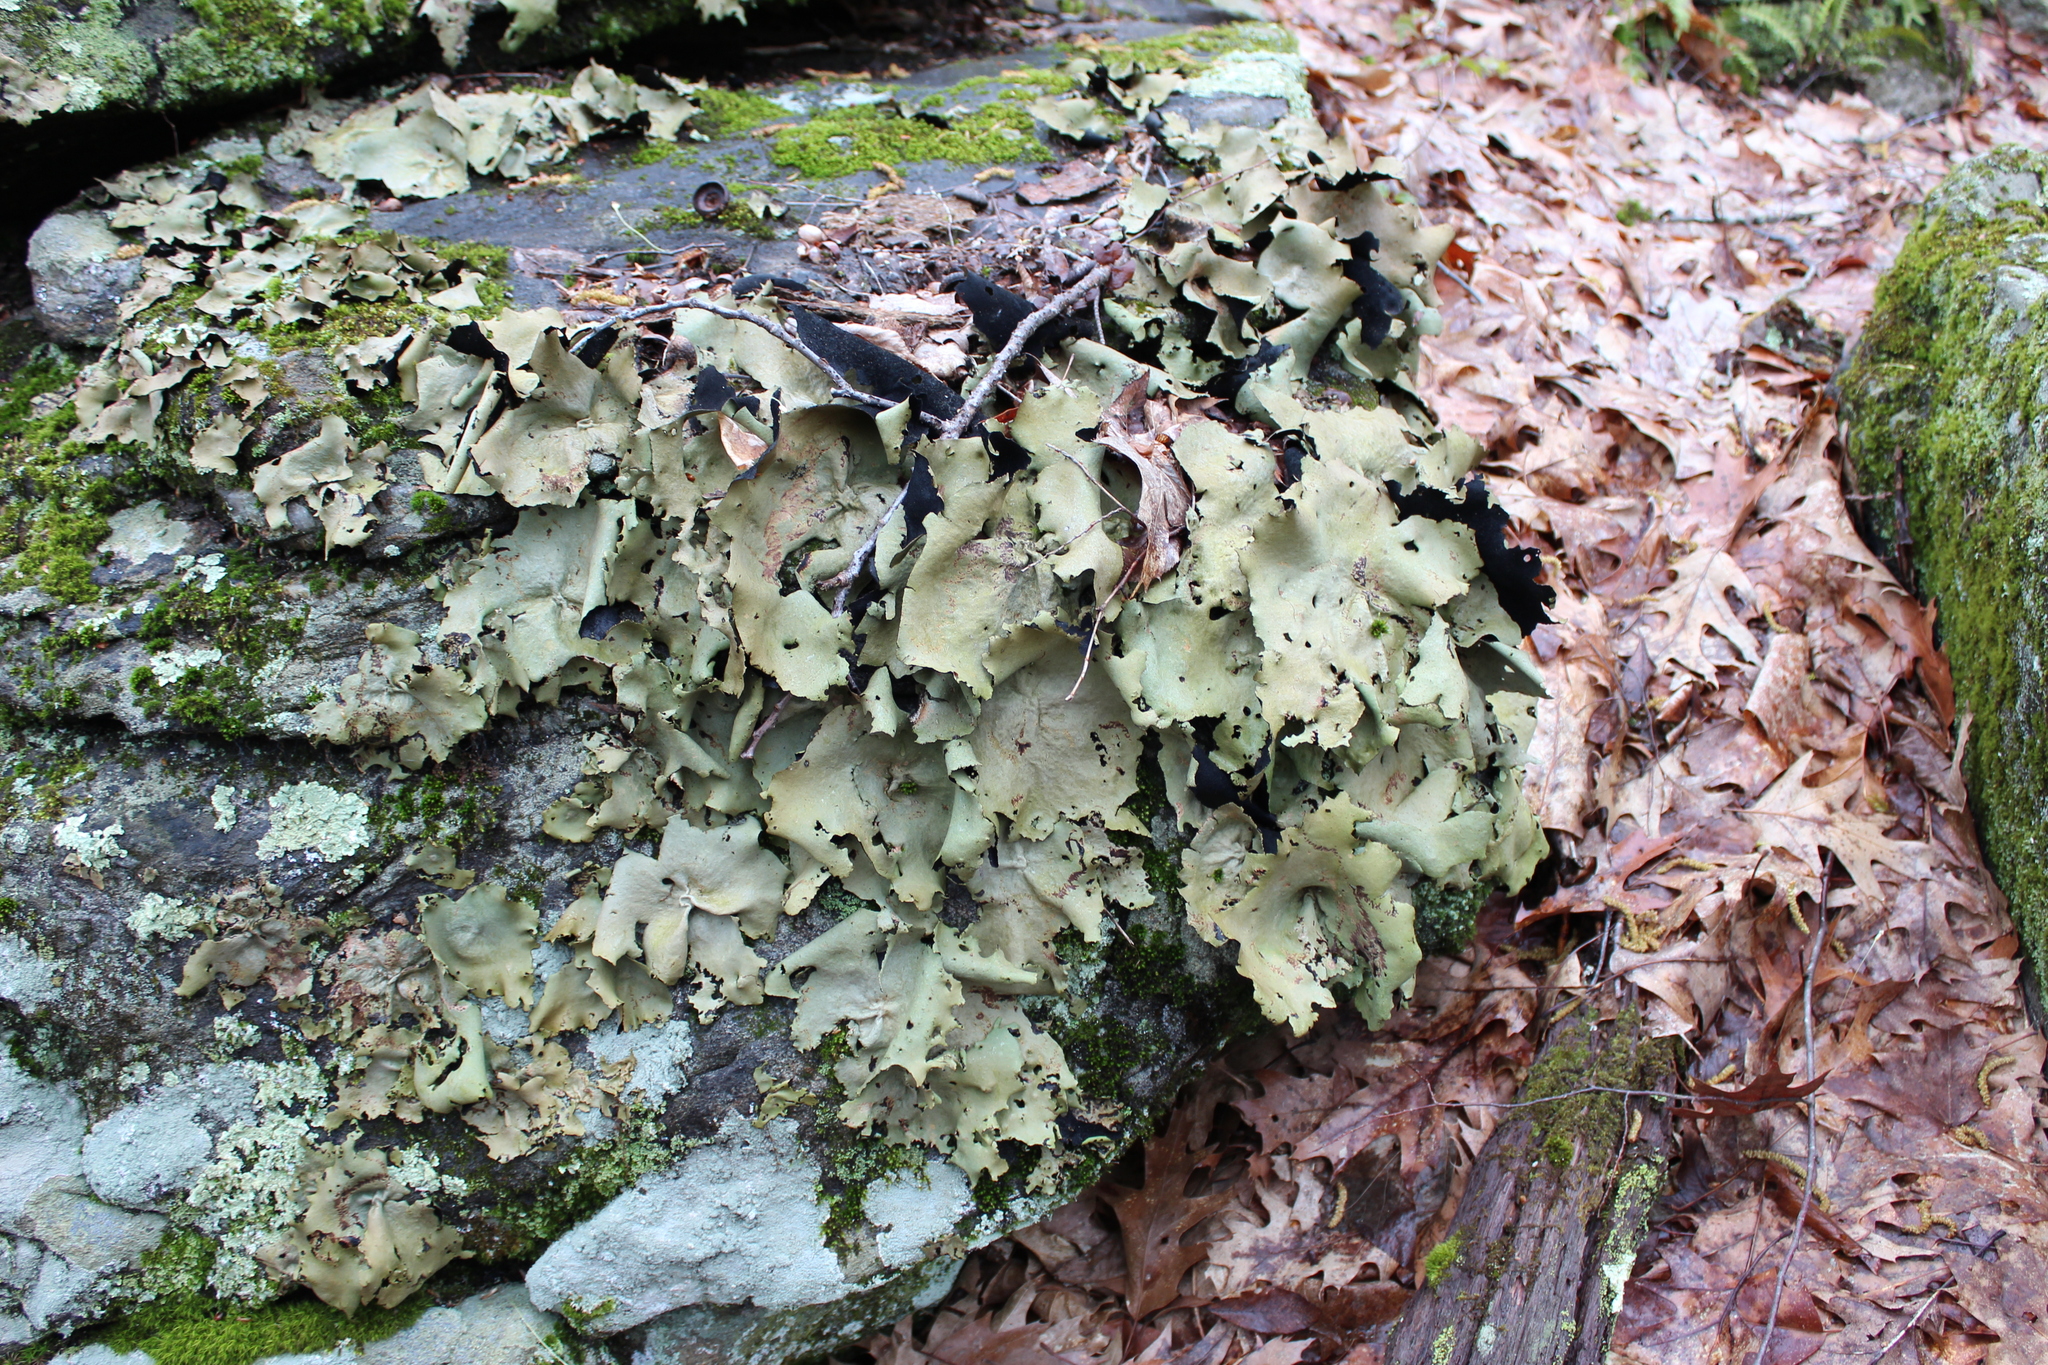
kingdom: Fungi
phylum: Ascomycota
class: Lecanoromycetes
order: Umbilicariales
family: Umbilicariaceae
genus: Umbilicaria
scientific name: Umbilicaria mammulata
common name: Smooth rock tripe
